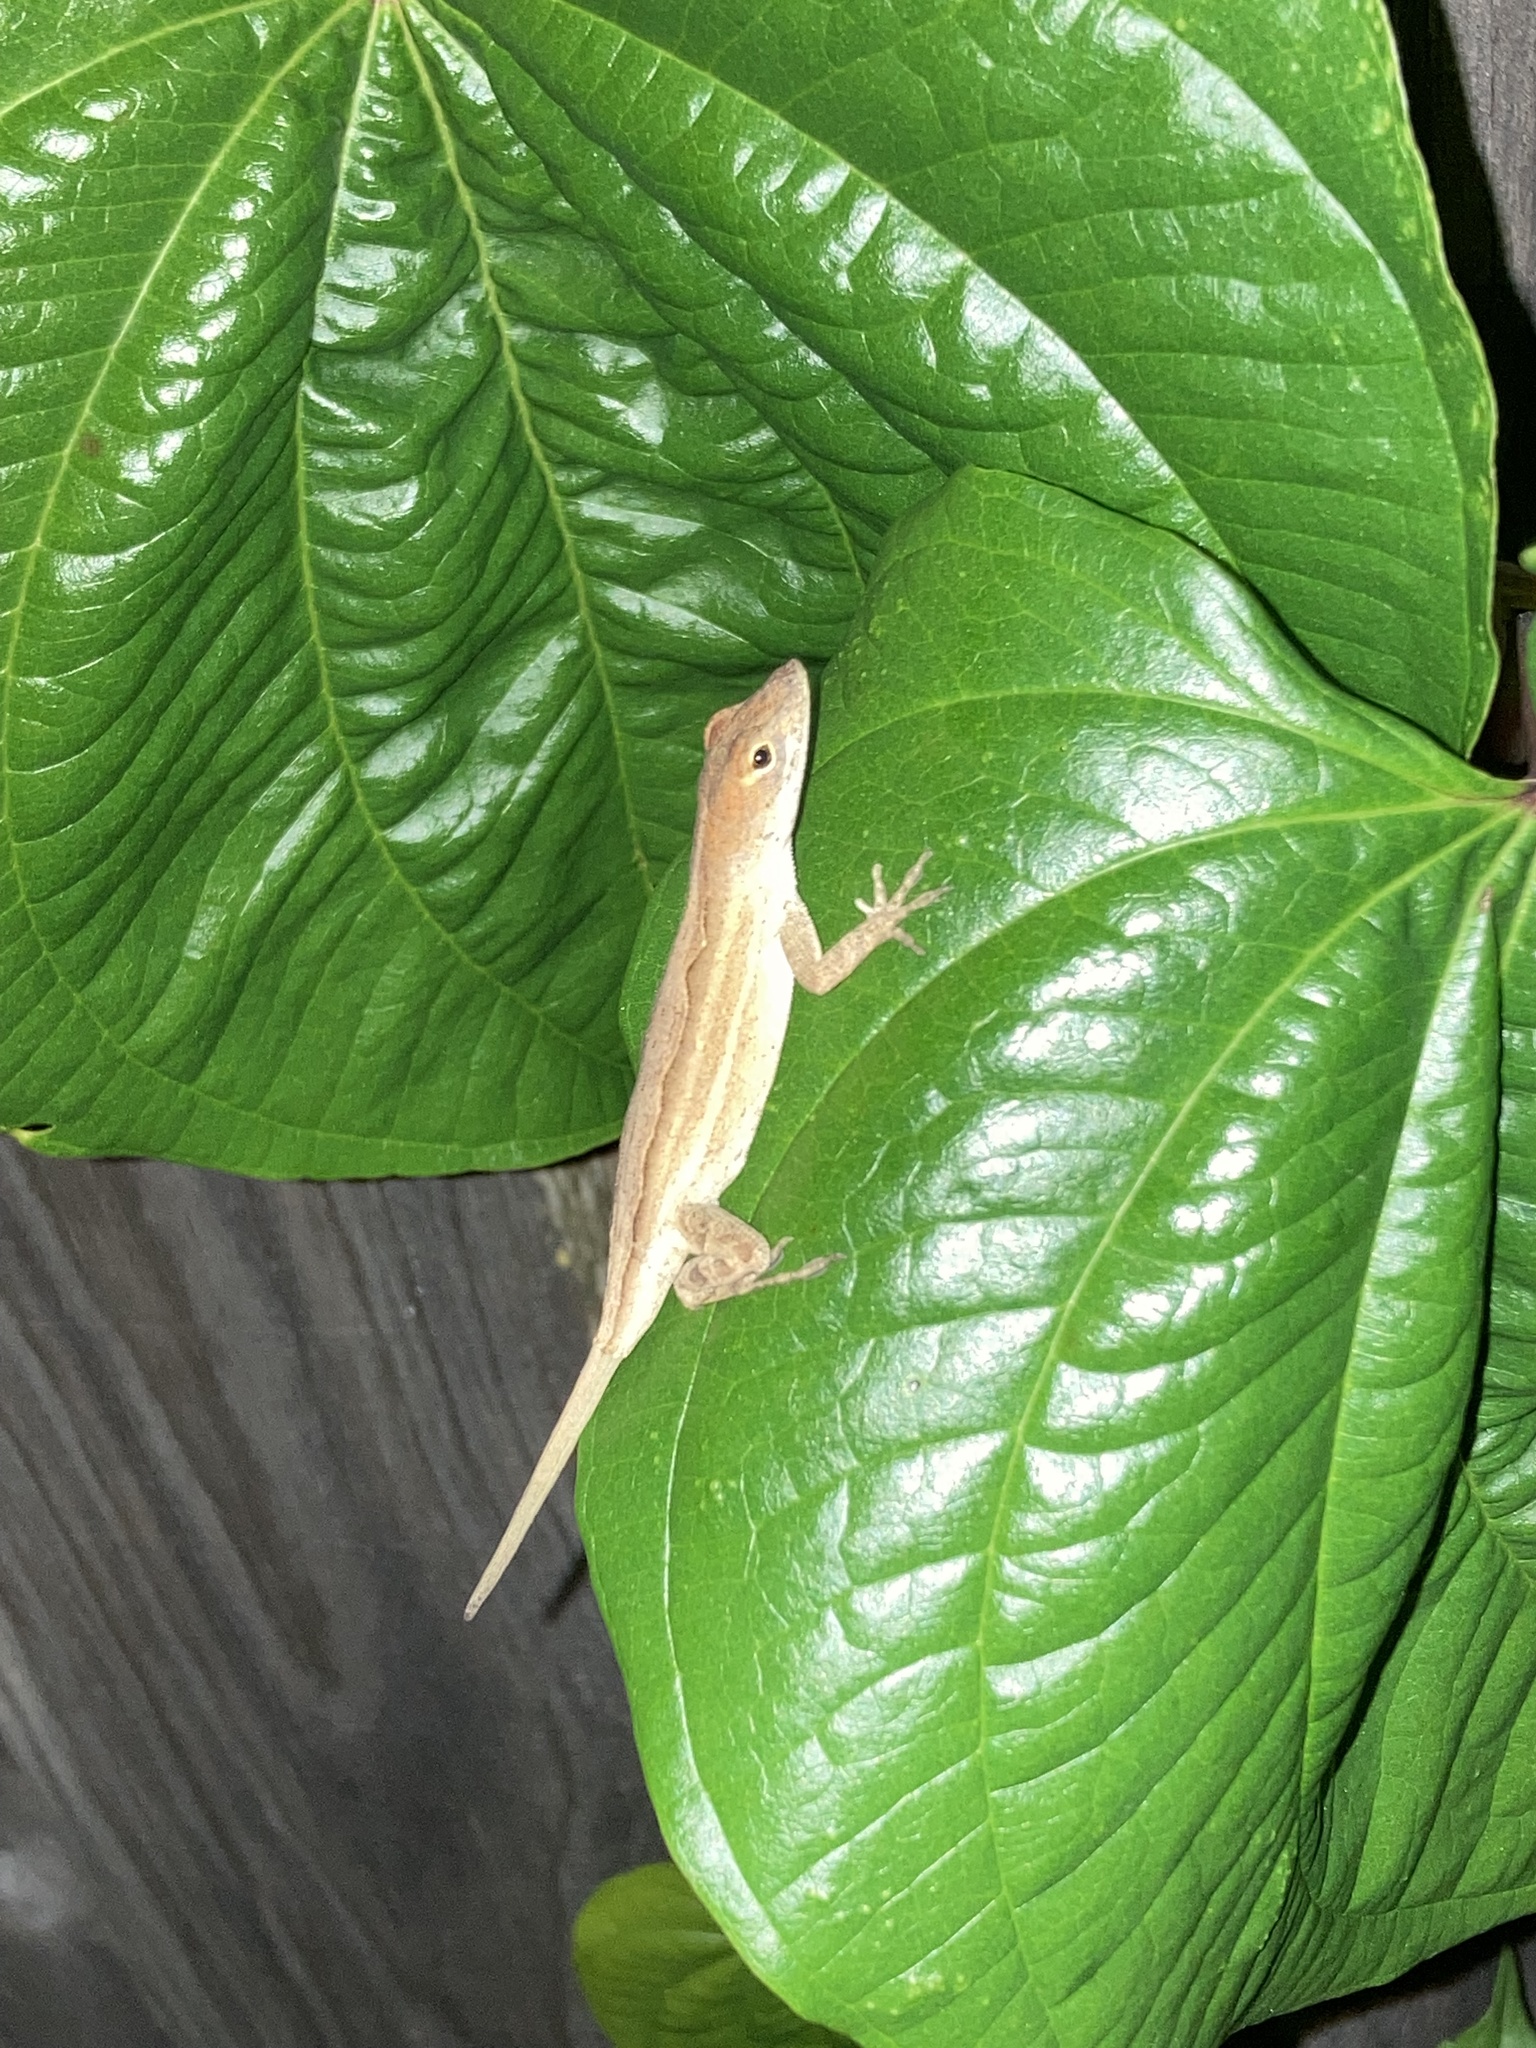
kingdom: Animalia
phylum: Chordata
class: Squamata
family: Dactyloidae
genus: Anolis
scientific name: Anolis sagrei
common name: Brown anole
